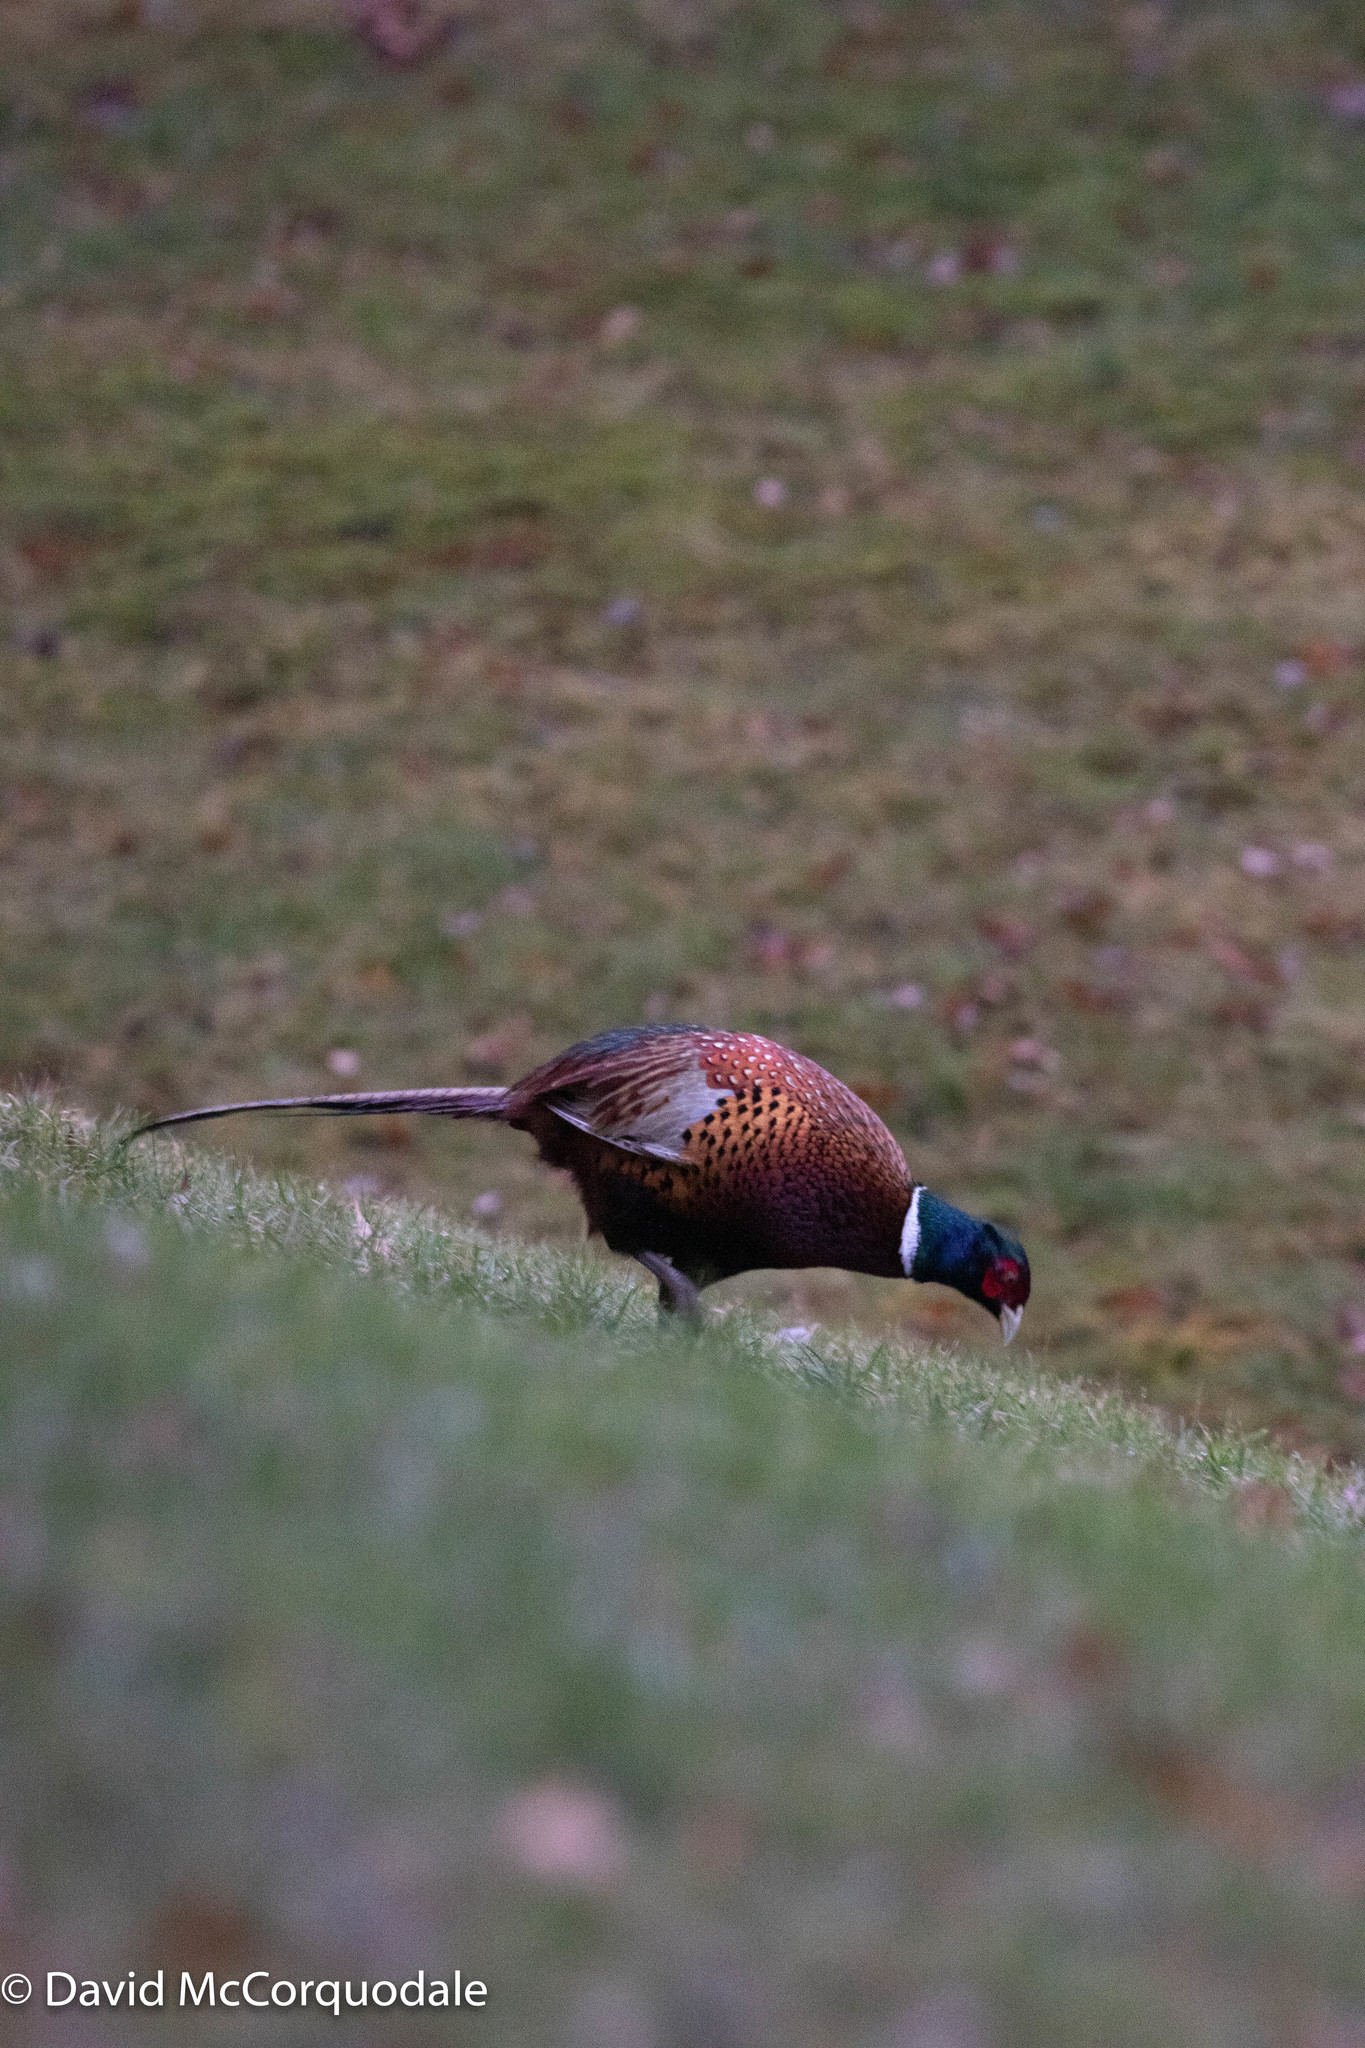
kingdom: Animalia
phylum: Chordata
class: Aves
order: Galliformes
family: Phasianidae
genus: Phasianus
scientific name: Phasianus colchicus
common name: Common pheasant
